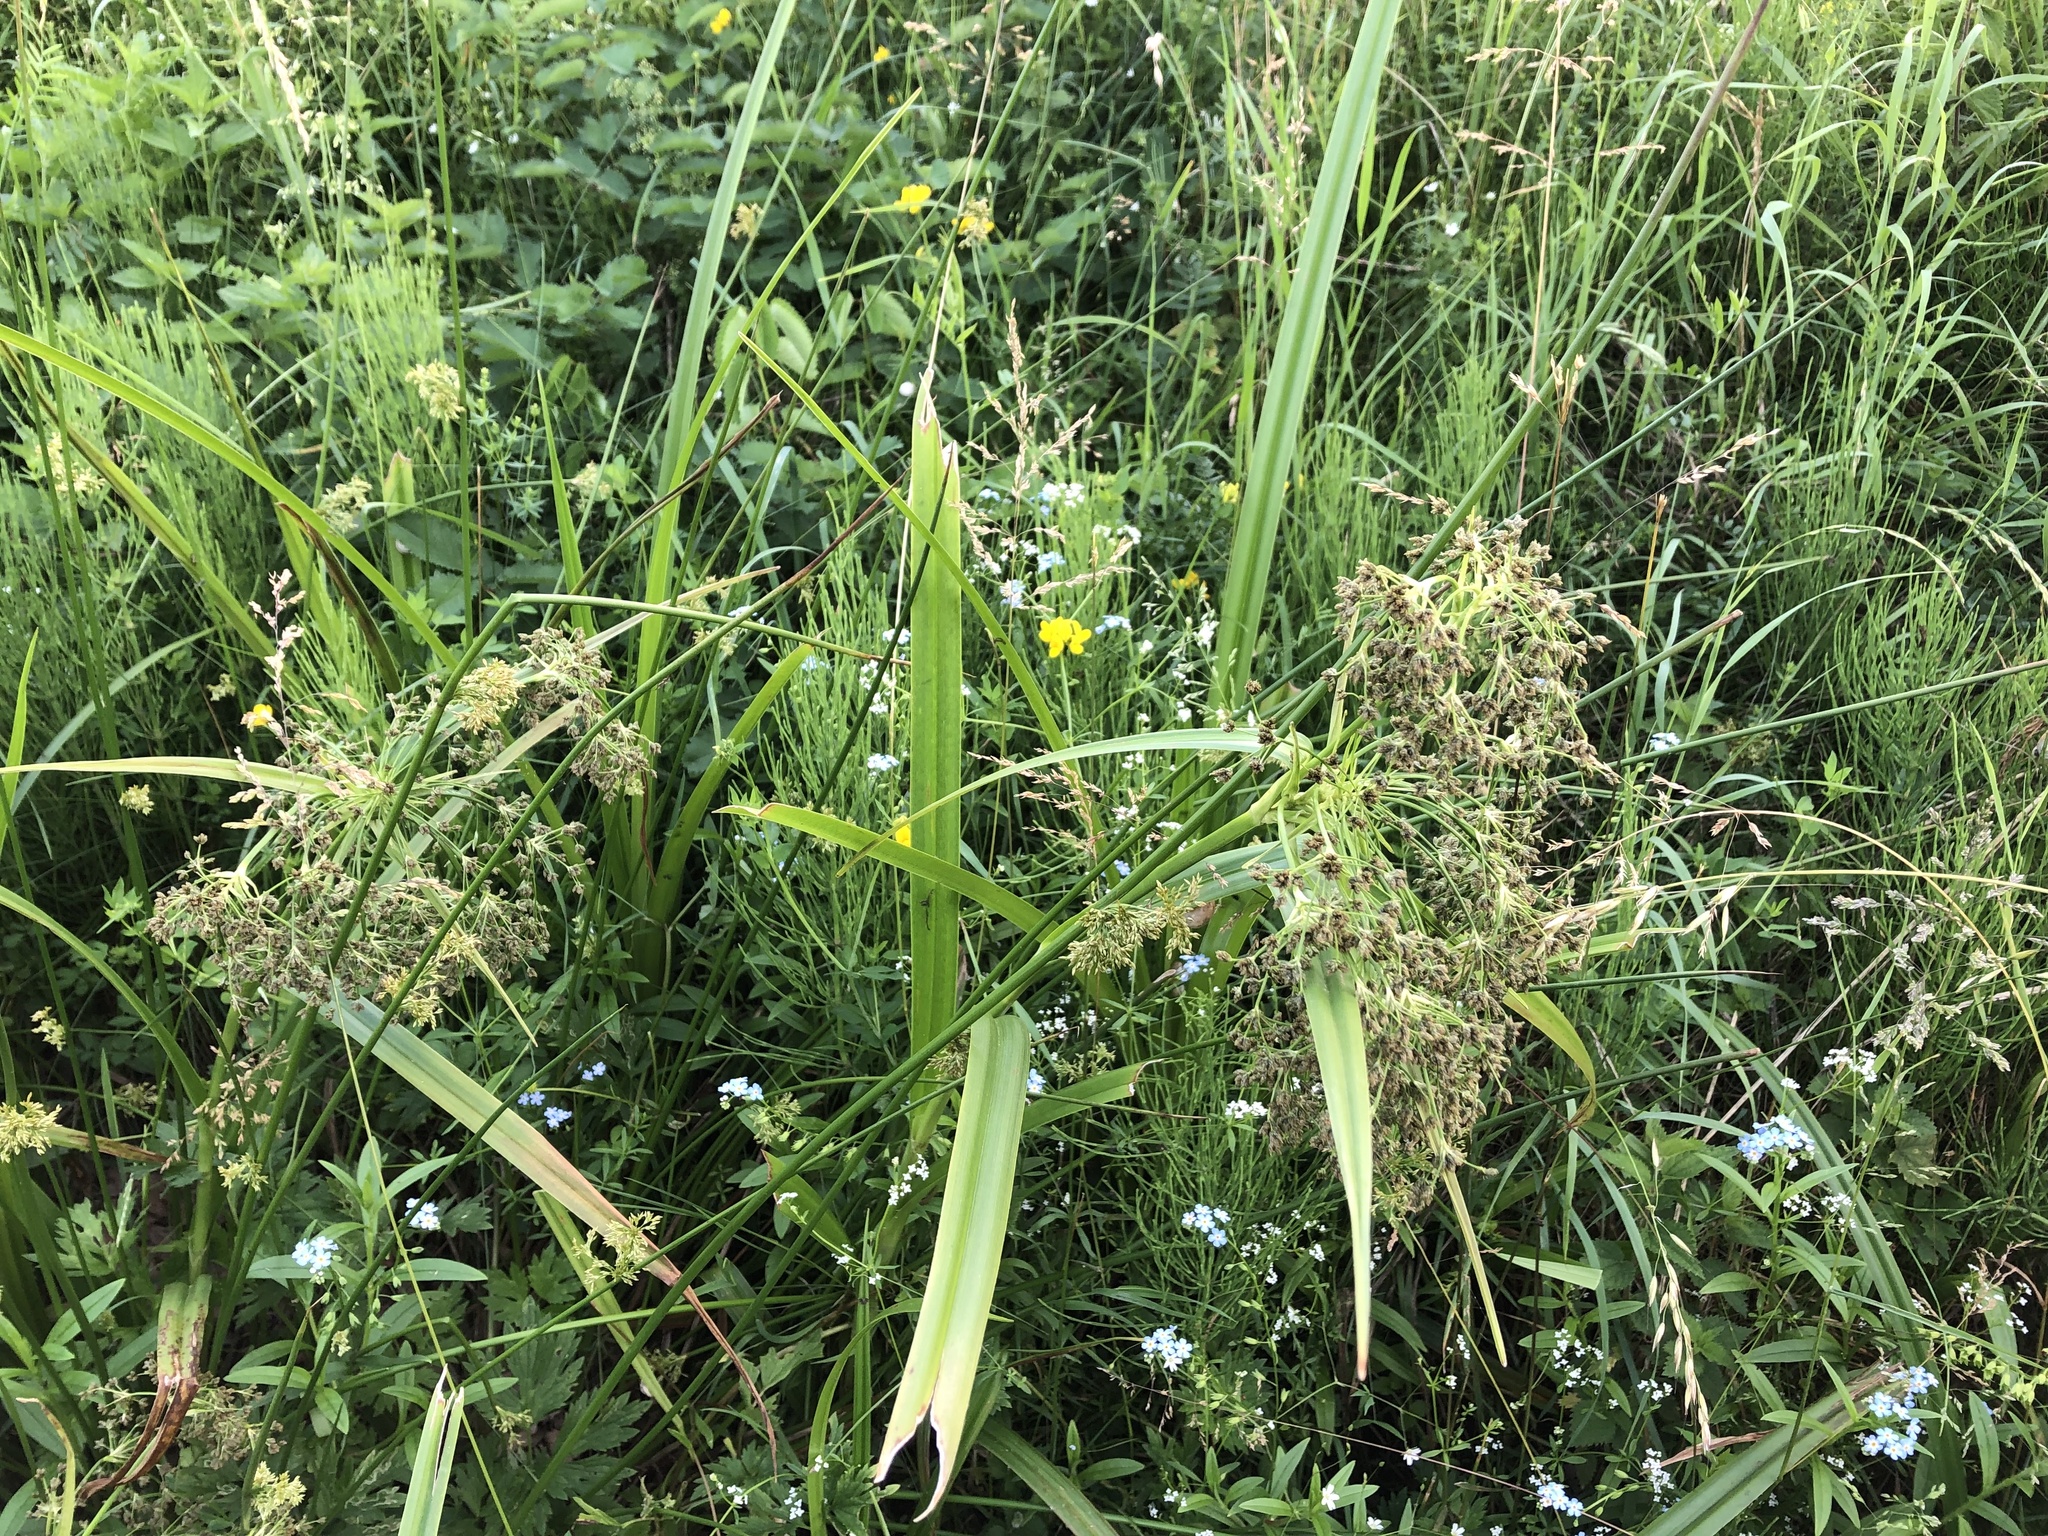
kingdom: Plantae
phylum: Tracheophyta
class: Liliopsida
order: Poales
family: Cyperaceae
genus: Scirpus
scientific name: Scirpus sylvaticus
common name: Wood club-rush
